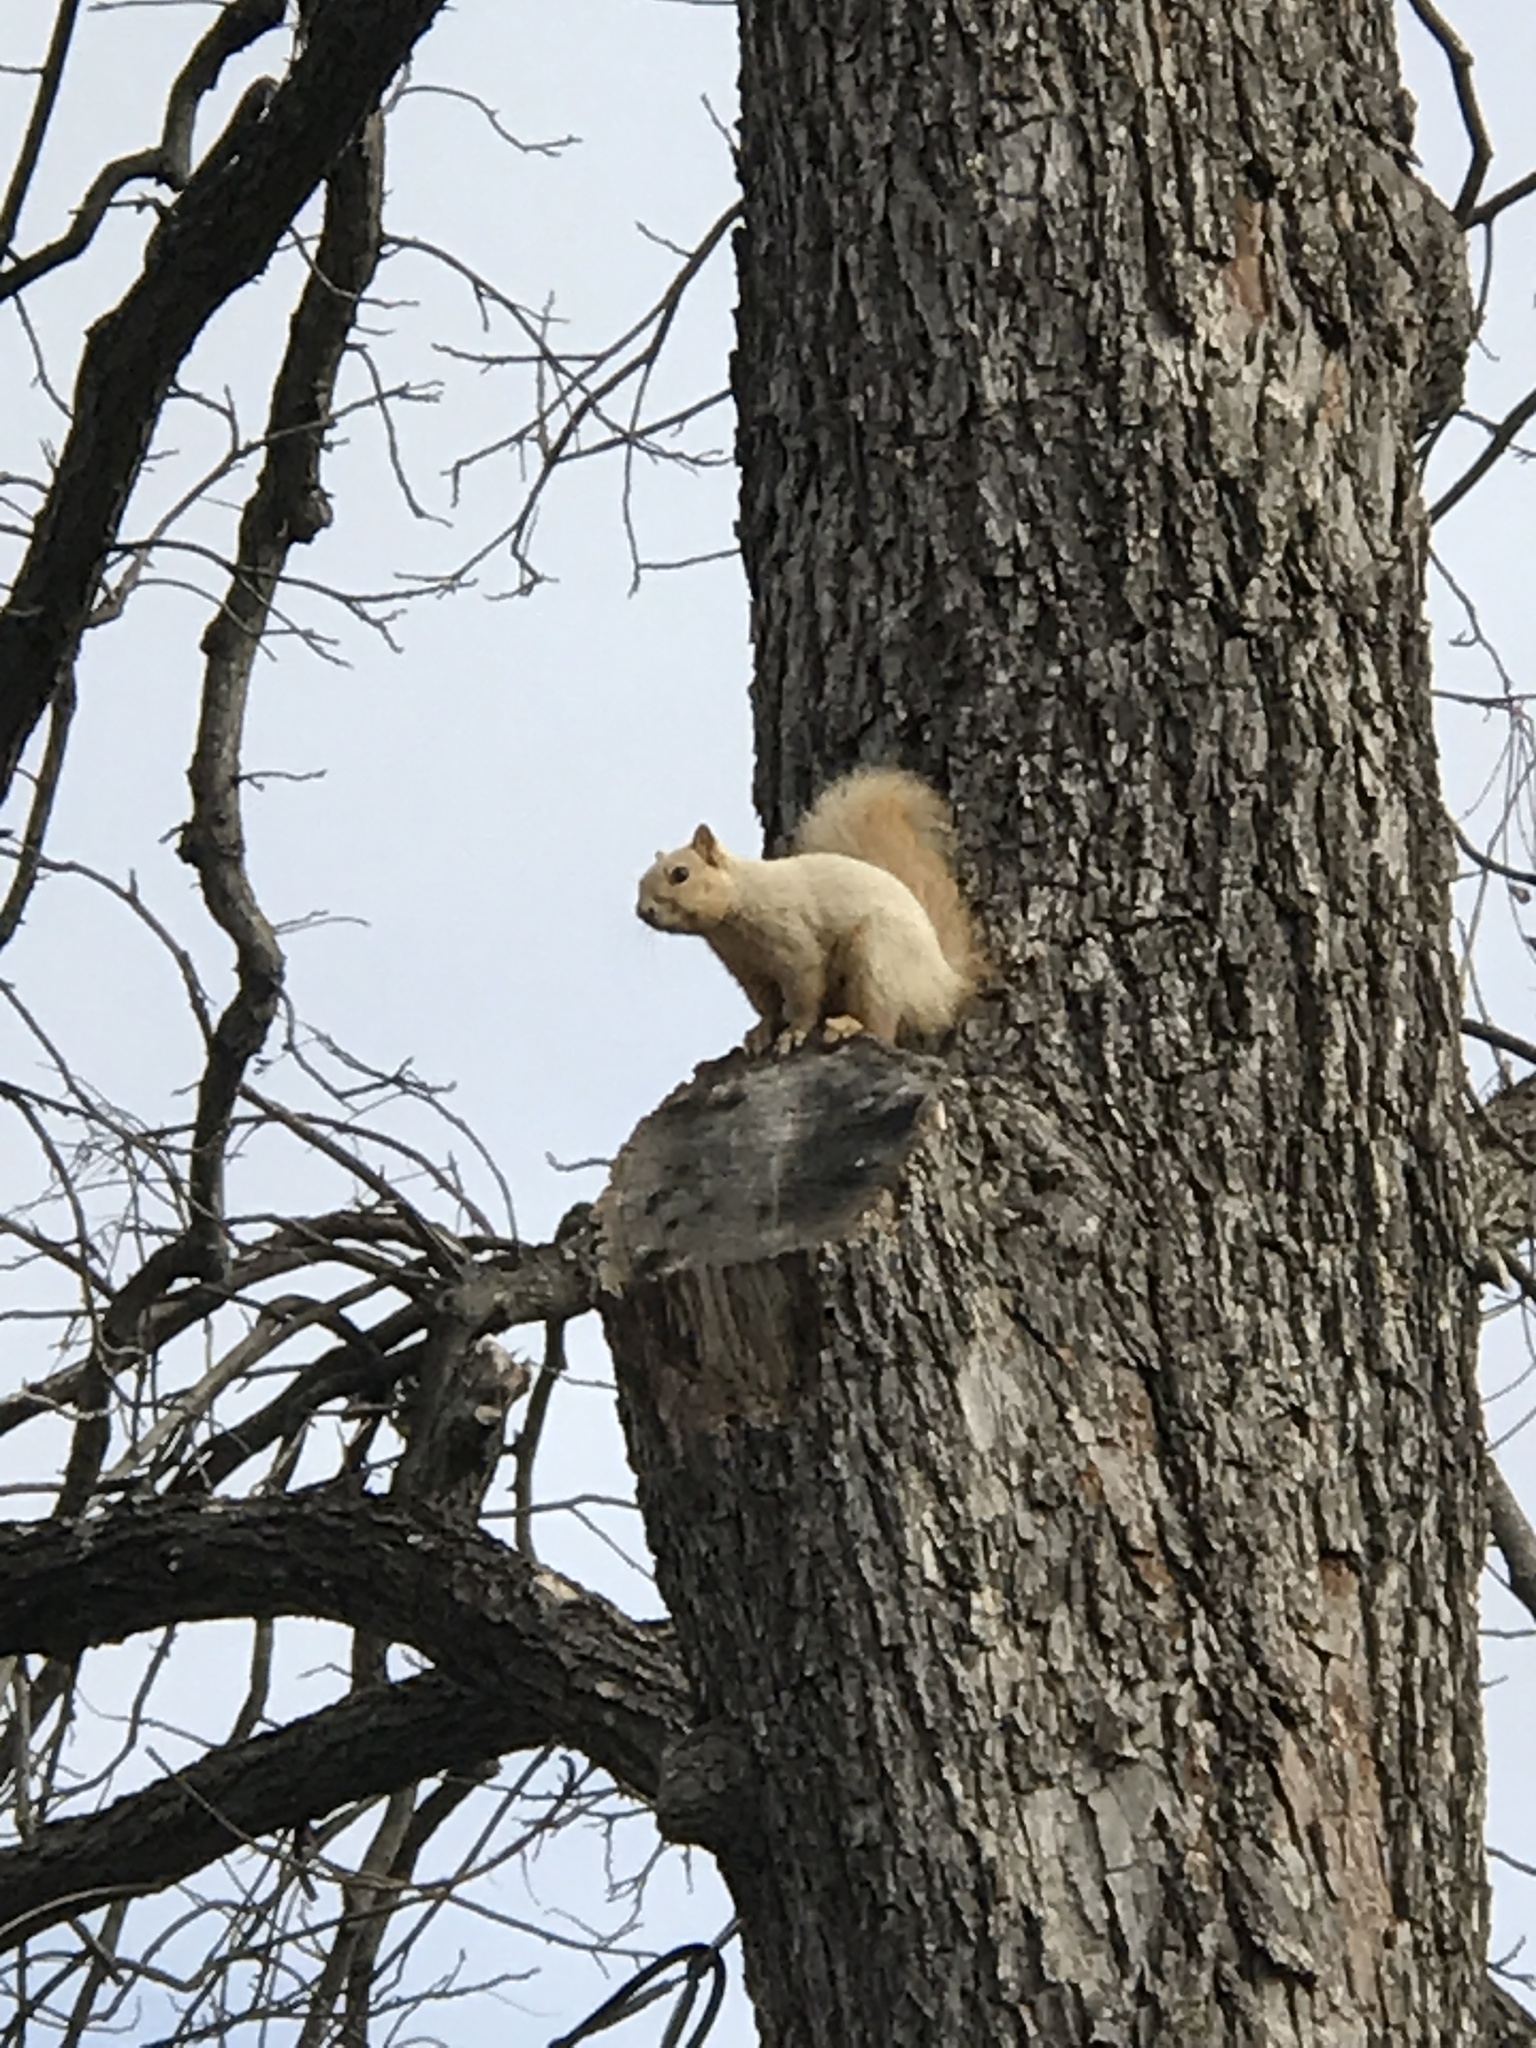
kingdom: Animalia
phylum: Chordata
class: Mammalia
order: Rodentia
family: Sciuridae
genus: Sciurus
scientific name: Sciurus niger
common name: Fox squirrel
